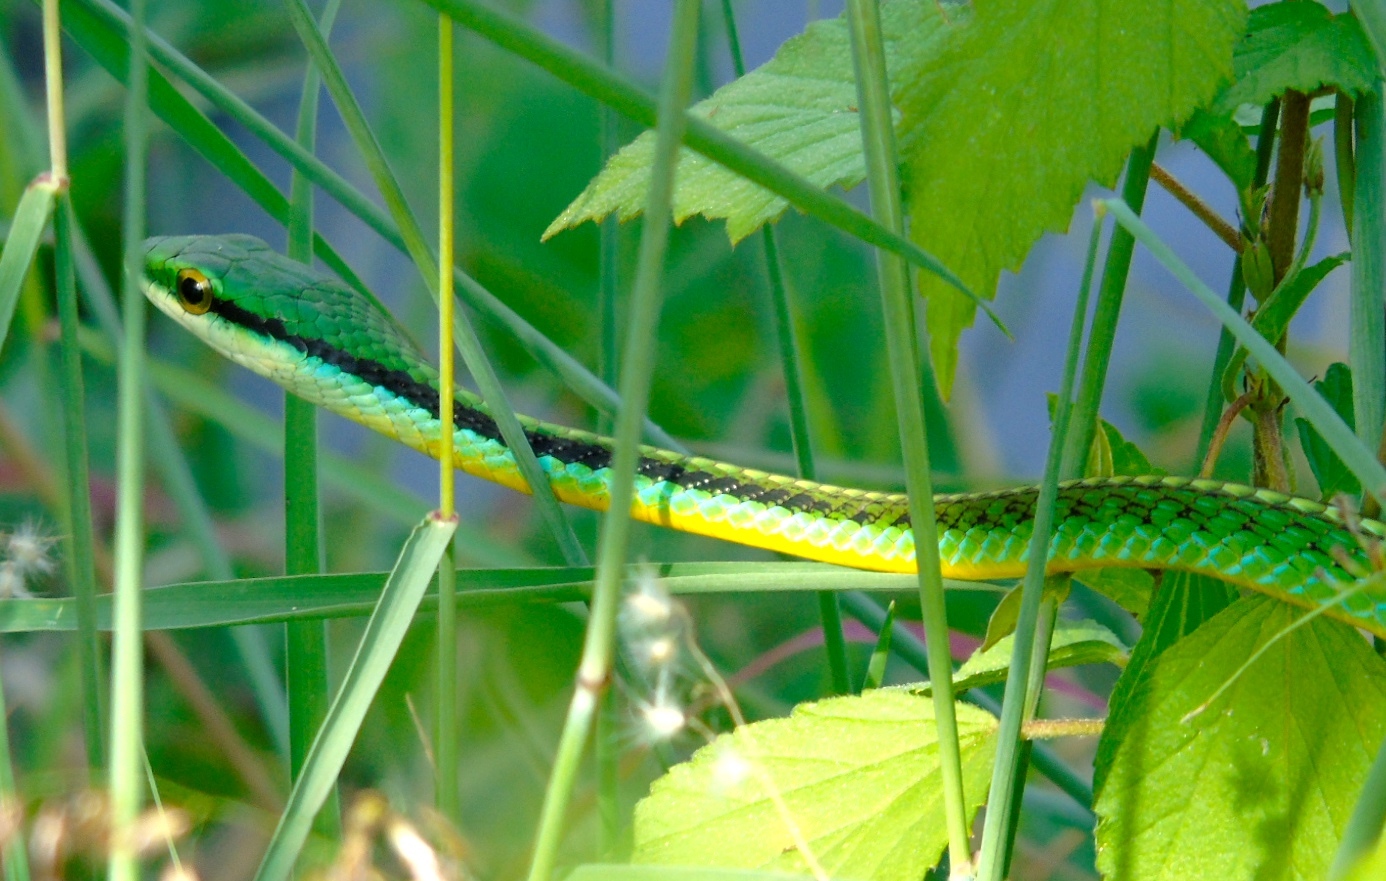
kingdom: Animalia
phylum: Chordata
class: Squamata
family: Colubridae
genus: Leptophis
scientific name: Leptophis diplotropis
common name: Pacific coast parrot snake
